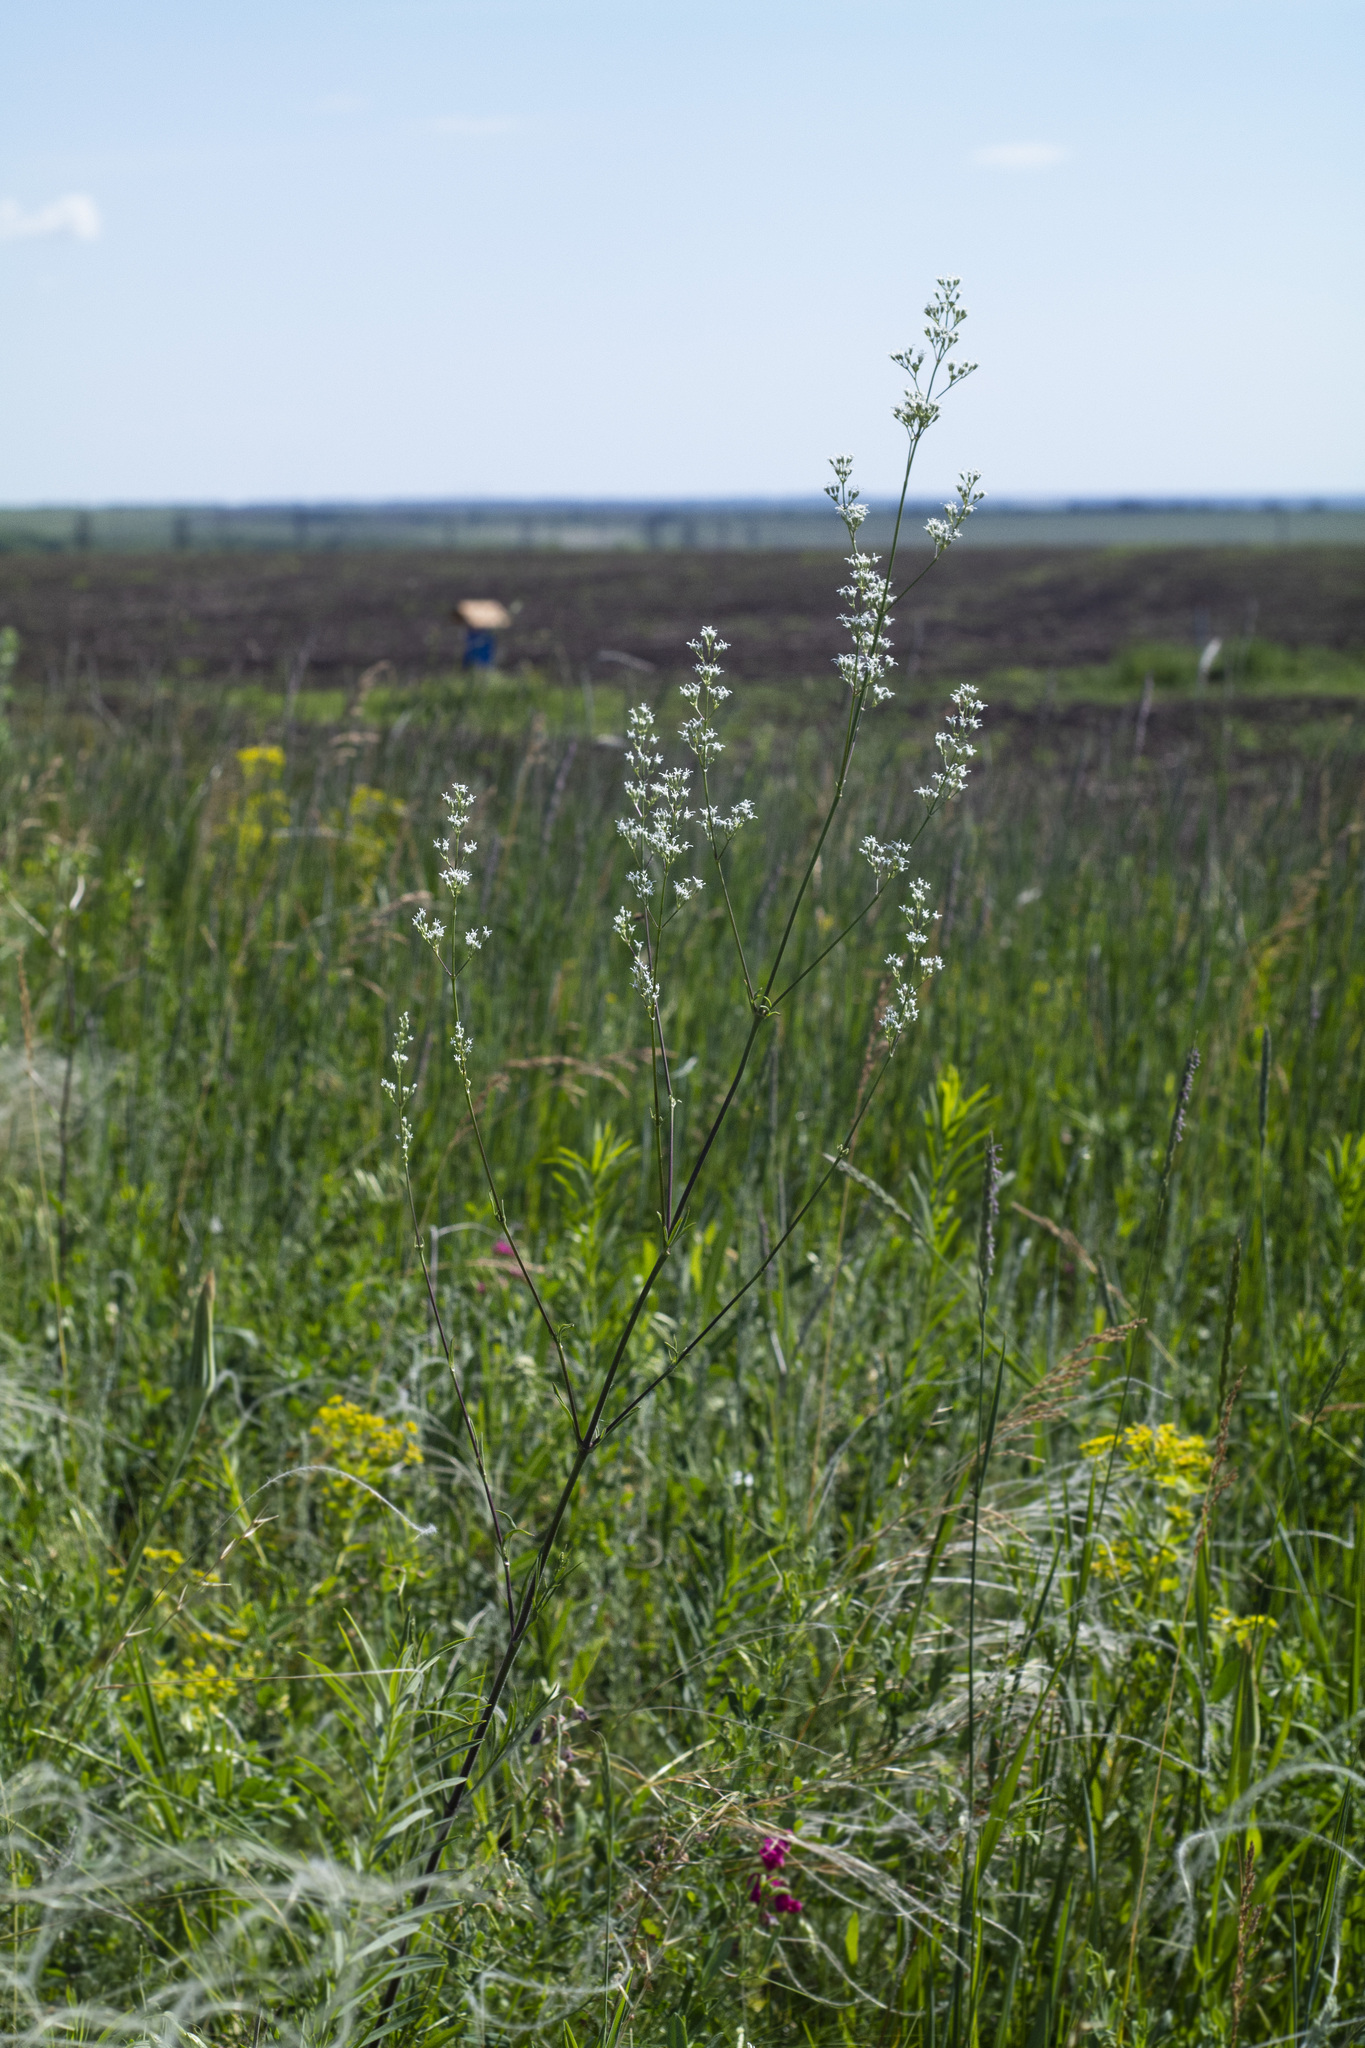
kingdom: Plantae
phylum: Tracheophyta
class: Magnoliopsida
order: Caryophyllales
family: Caryophyllaceae
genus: Silene
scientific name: Silene wolgensis
